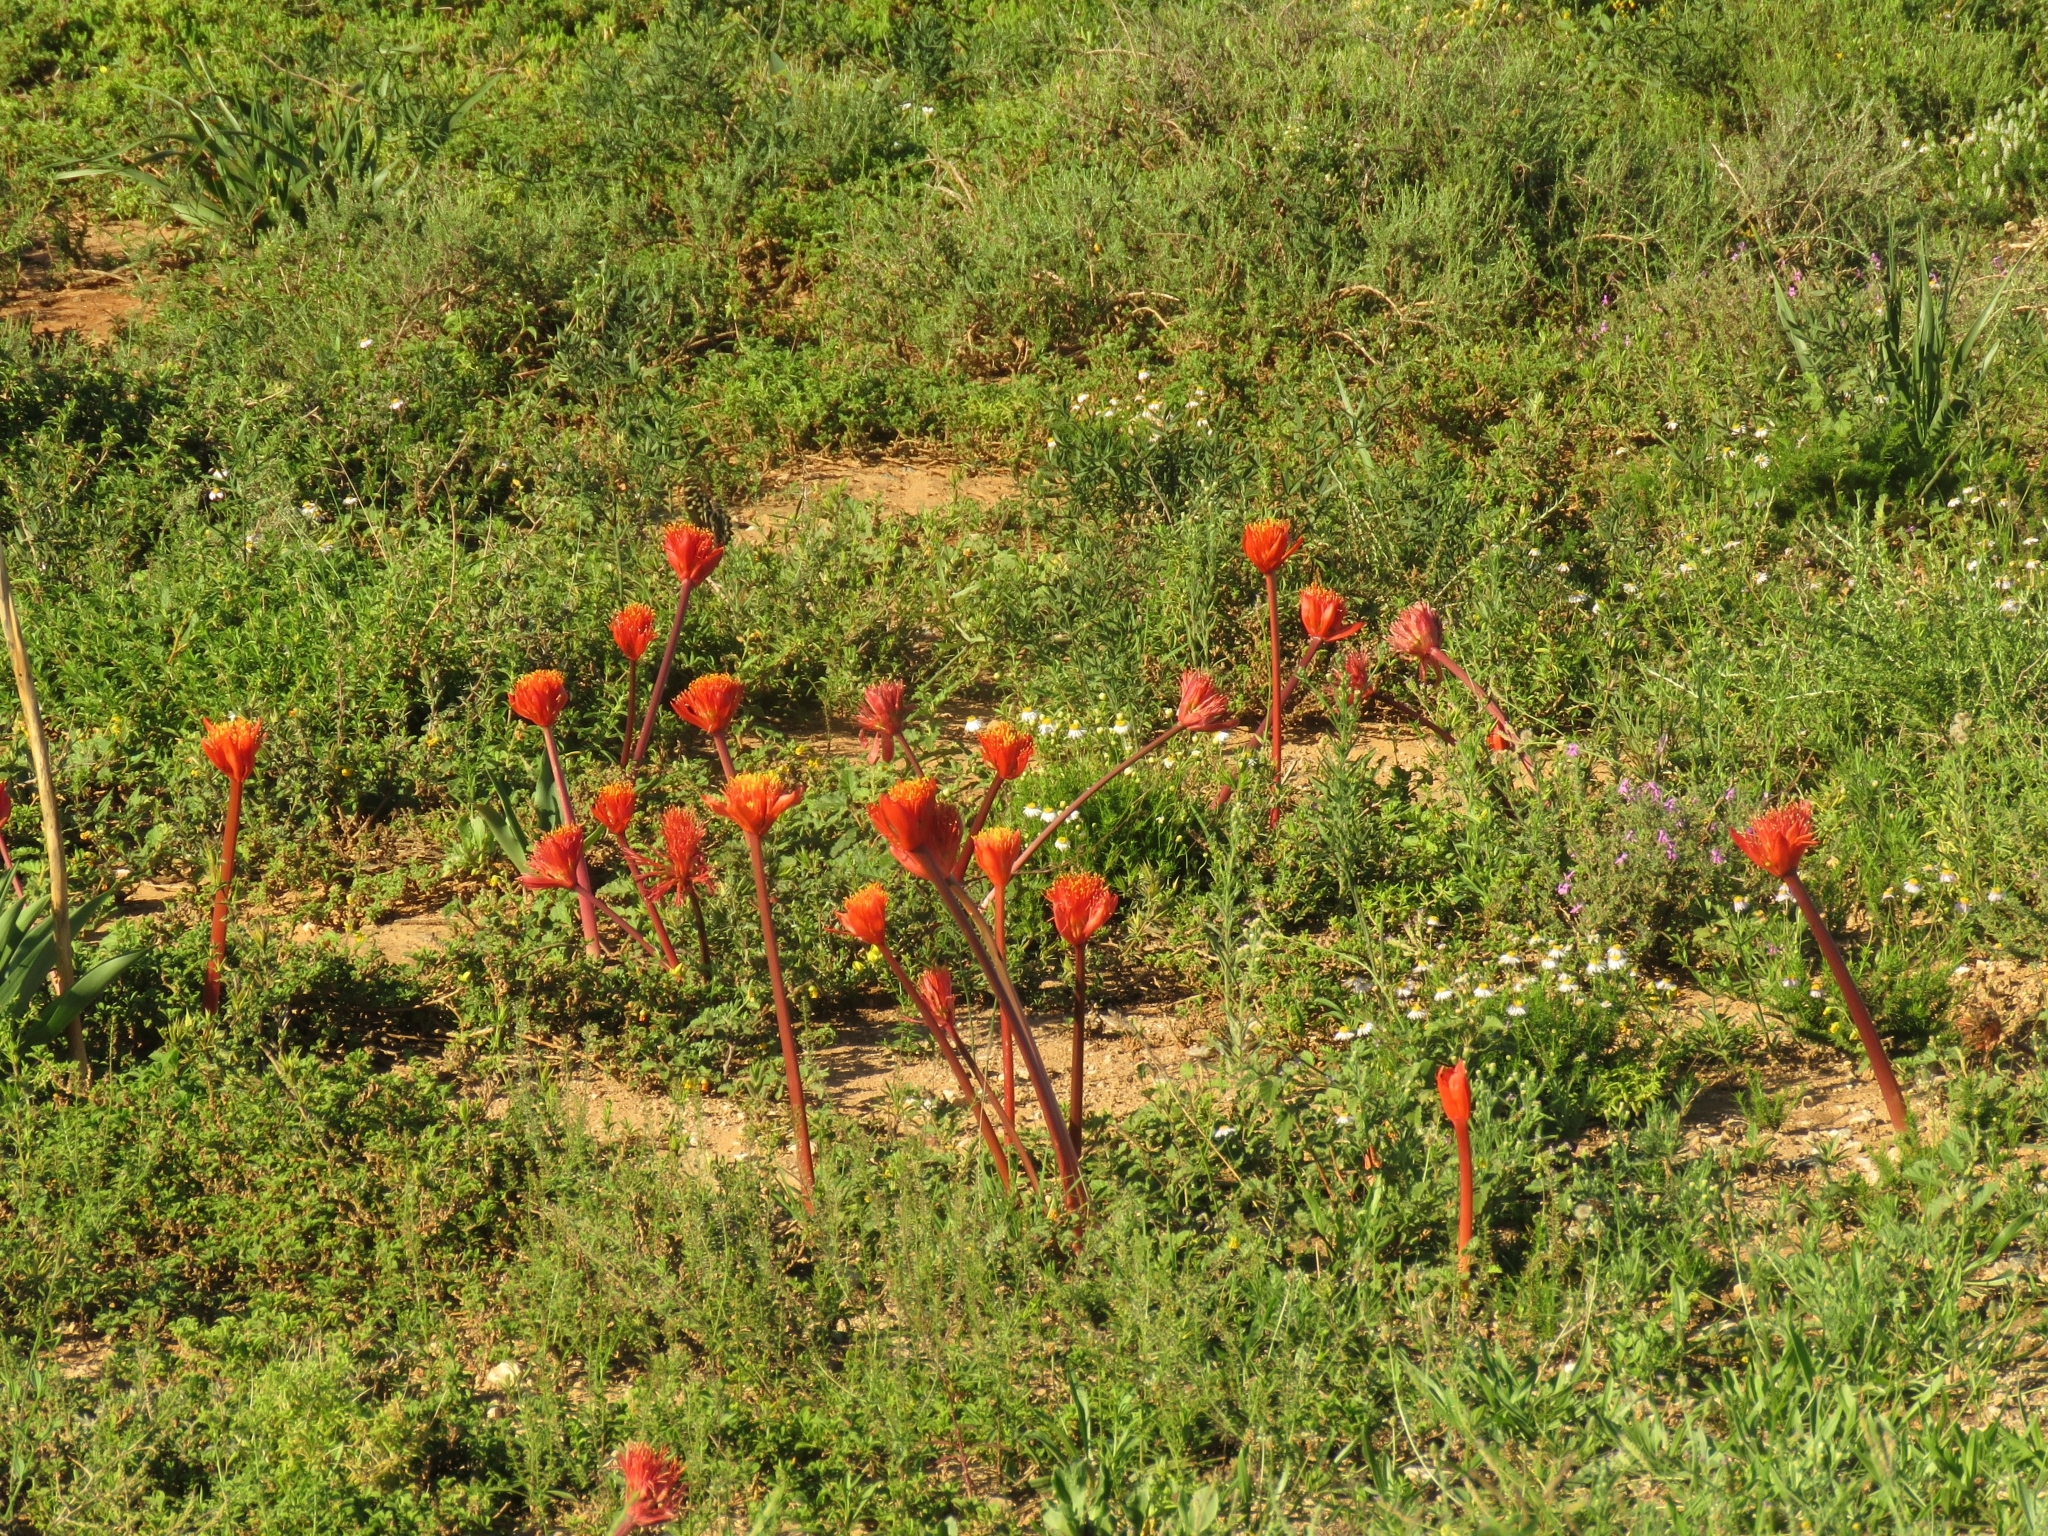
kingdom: Plantae
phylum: Tracheophyta
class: Liliopsida
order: Asparagales
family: Amaryllidaceae
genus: Haemanthus
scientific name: Haemanthus coccineus
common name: Cape-tulip
